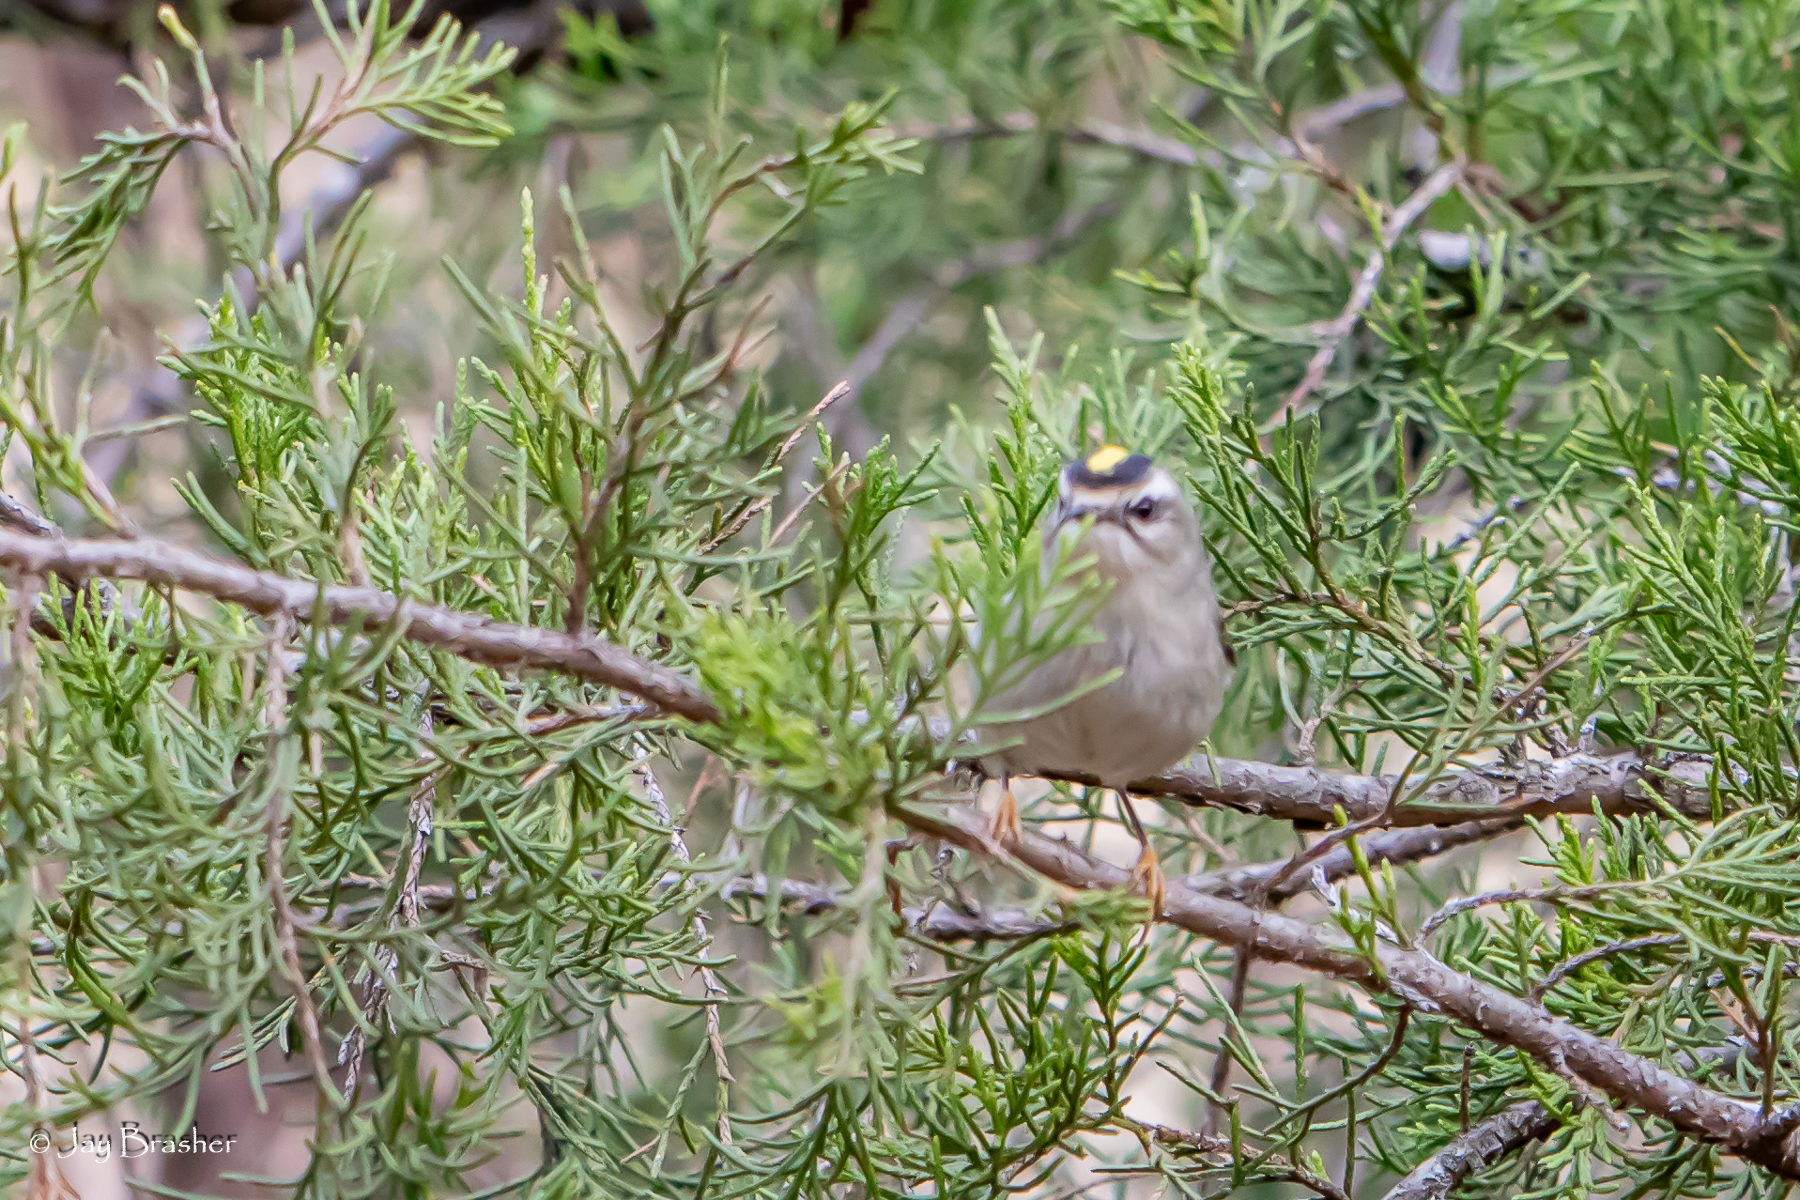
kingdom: Animalia
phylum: Chordata
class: Aves
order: Passeriformes
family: Regulidae
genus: Regulus
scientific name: Regulus satrapa
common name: Golden-crowned kinglet
